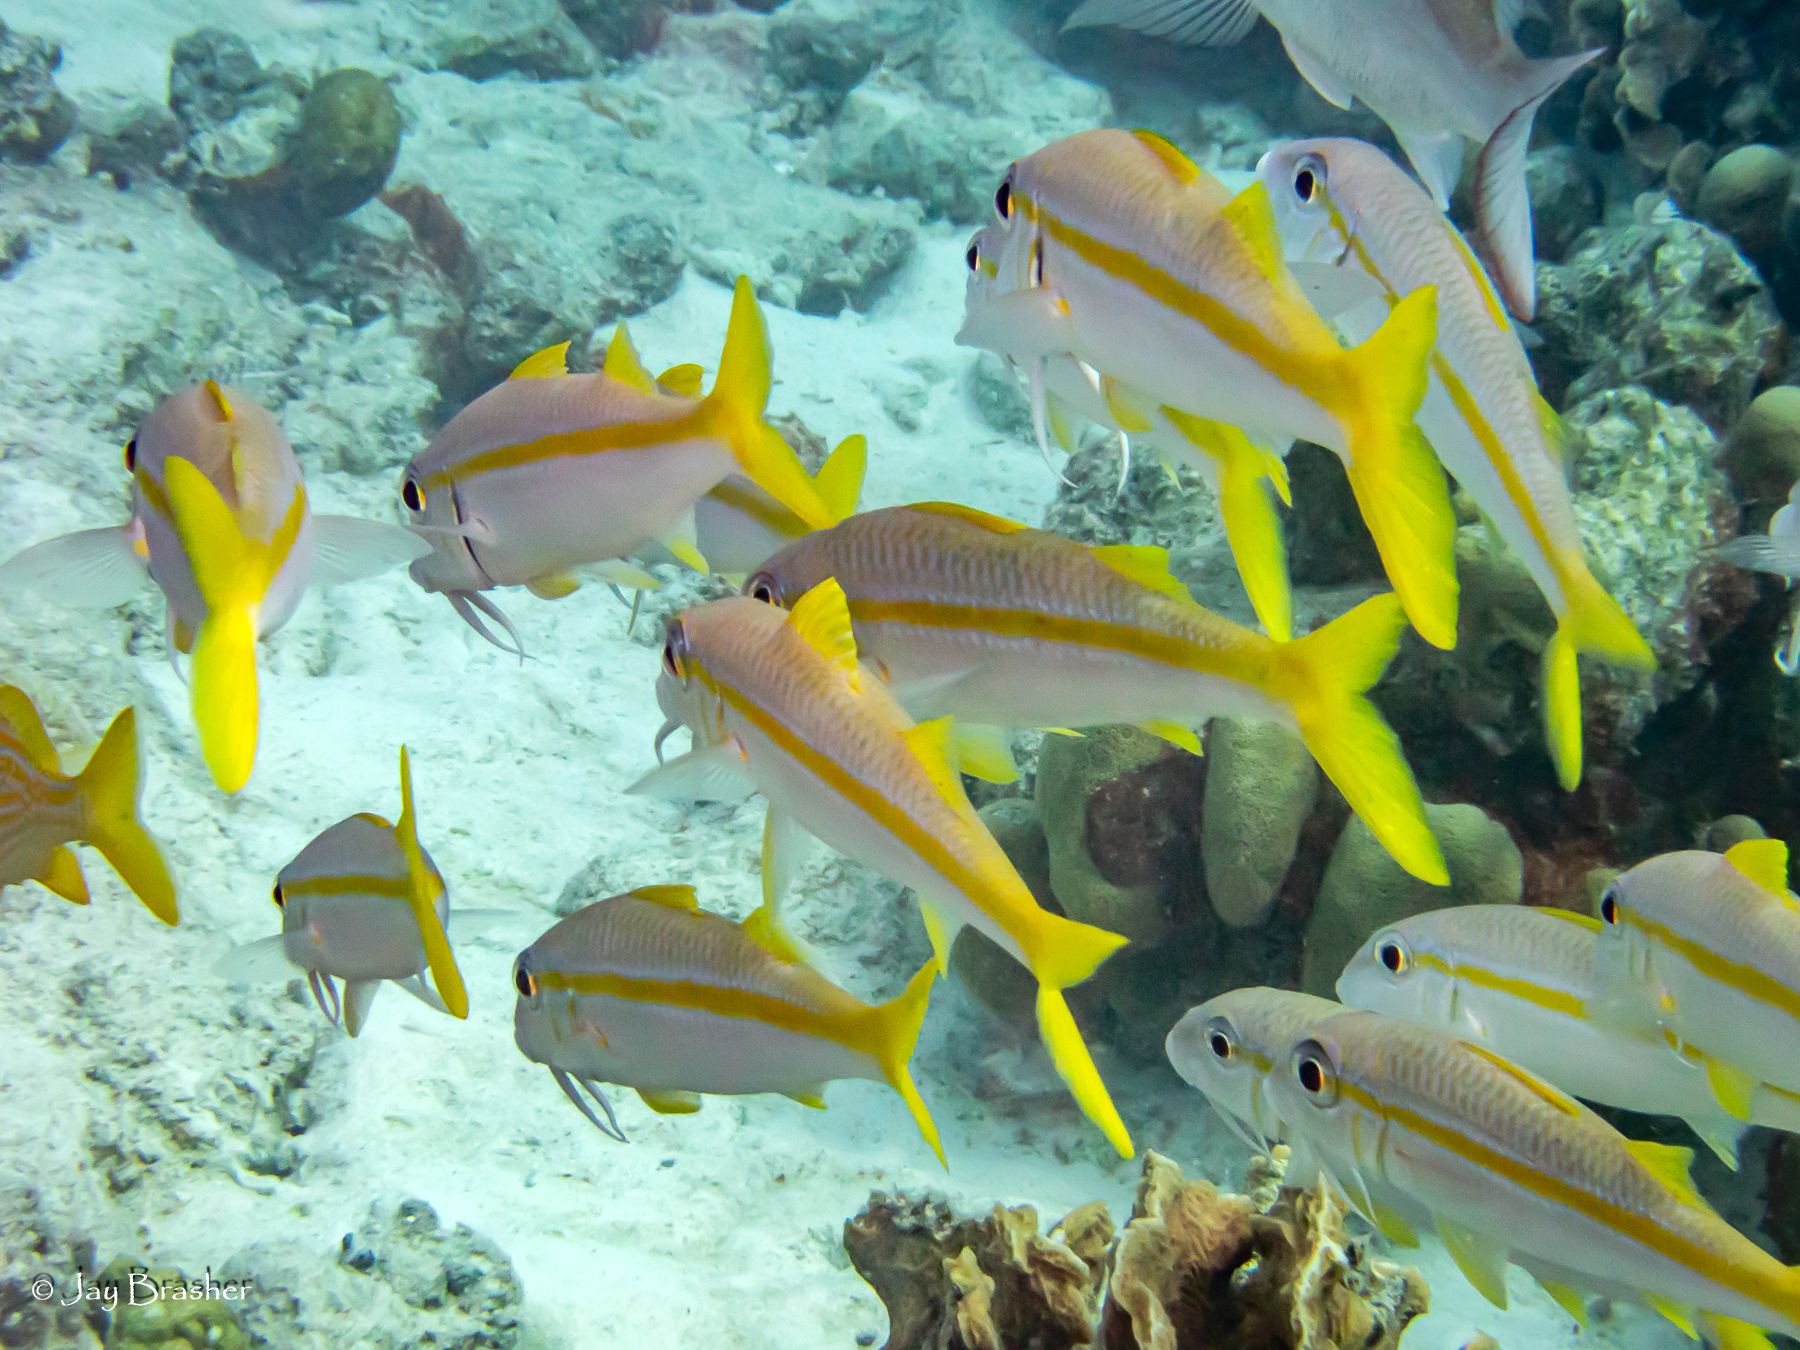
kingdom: Animalia
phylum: Chordata
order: Perciformes
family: Mullidae
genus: Mulloidichthys
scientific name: Mulloidichthys martinicus
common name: Yellow goatfish
